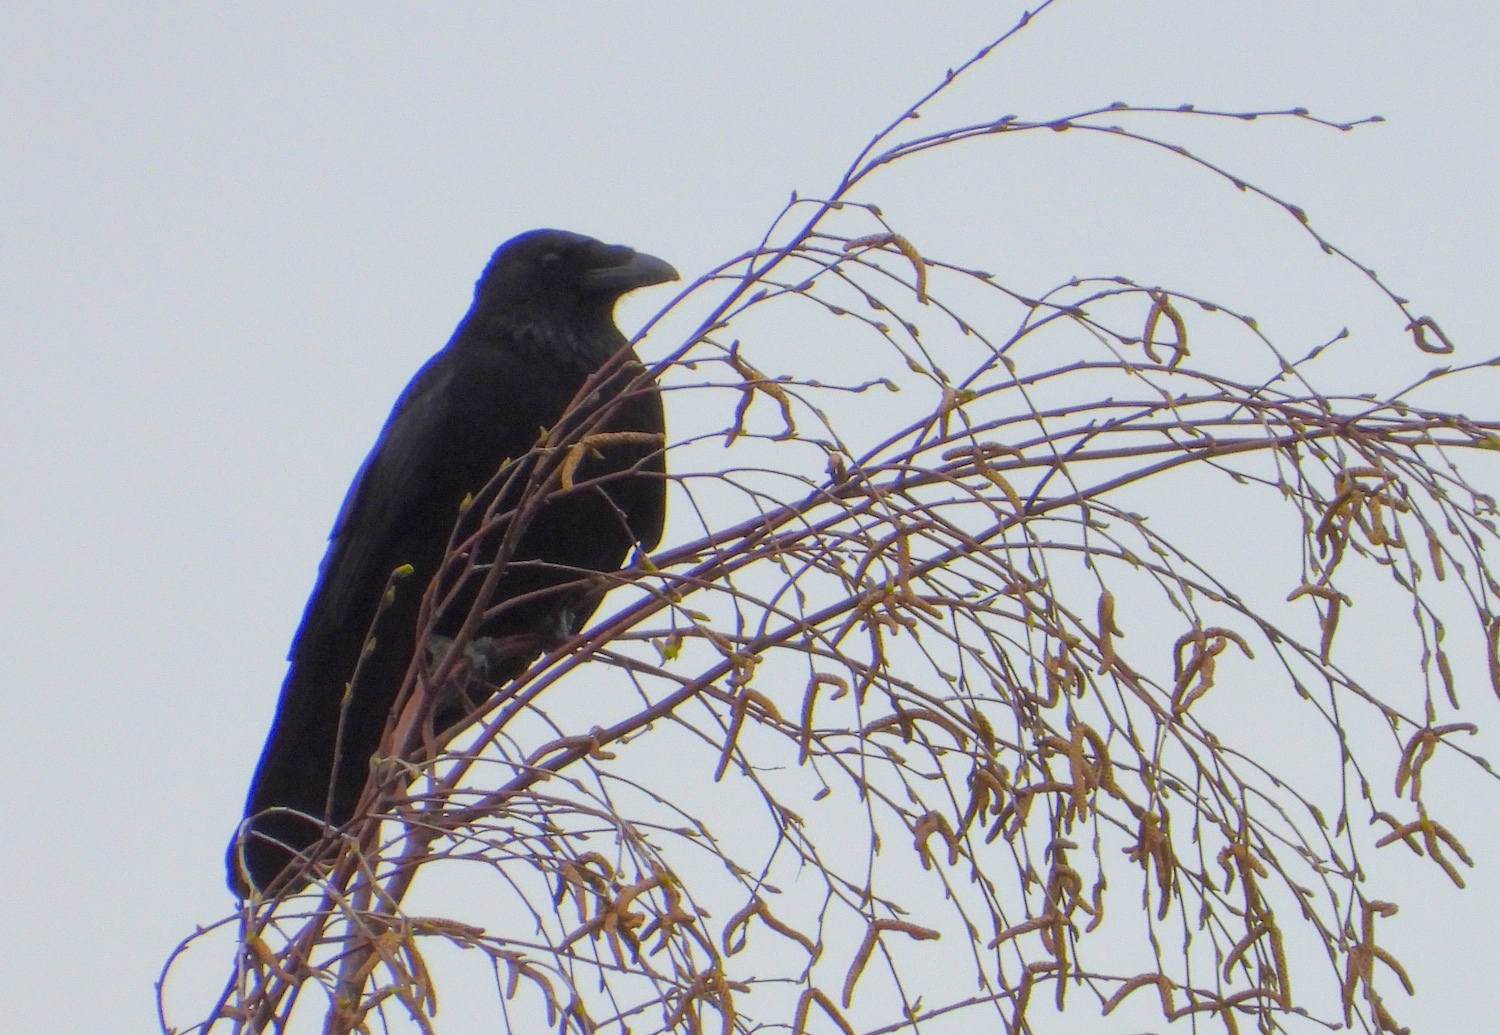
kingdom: Animalia
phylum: Chordata
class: Aves
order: Passeriformes
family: Corvidae
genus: Corvus
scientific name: Corvus corone
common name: Carrion crow
